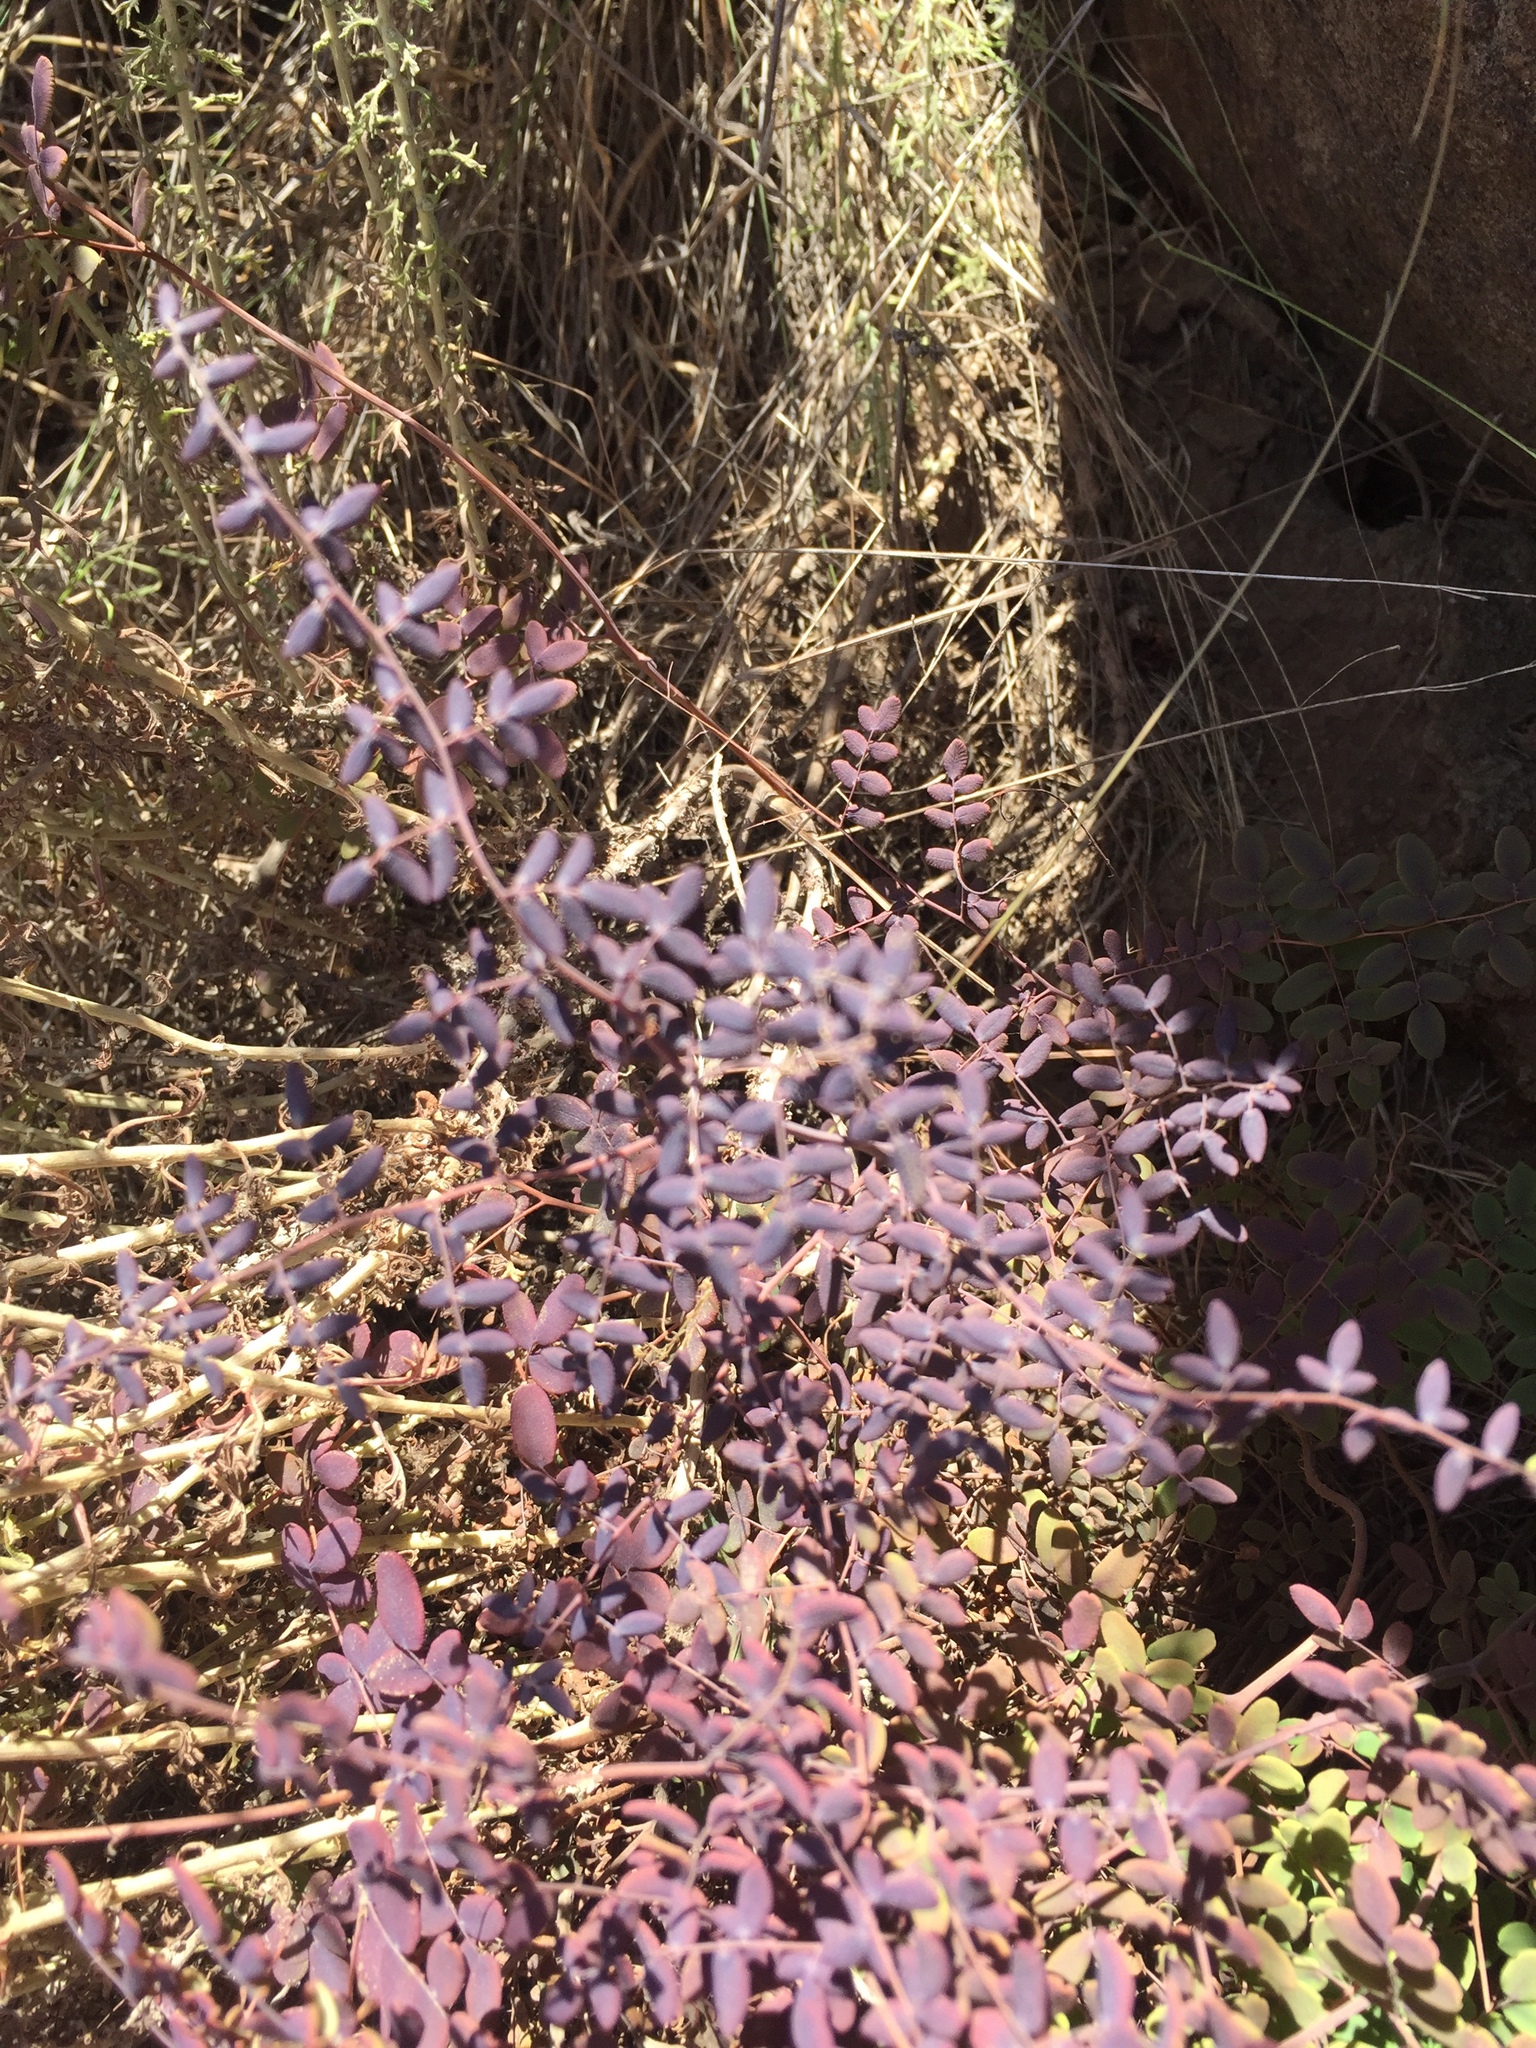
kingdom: Plantae
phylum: Tracheophyta
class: Polypodiopsida
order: Polypodiales
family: Pteridaceae
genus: Pellaea
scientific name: Pellaea andromedifolia
